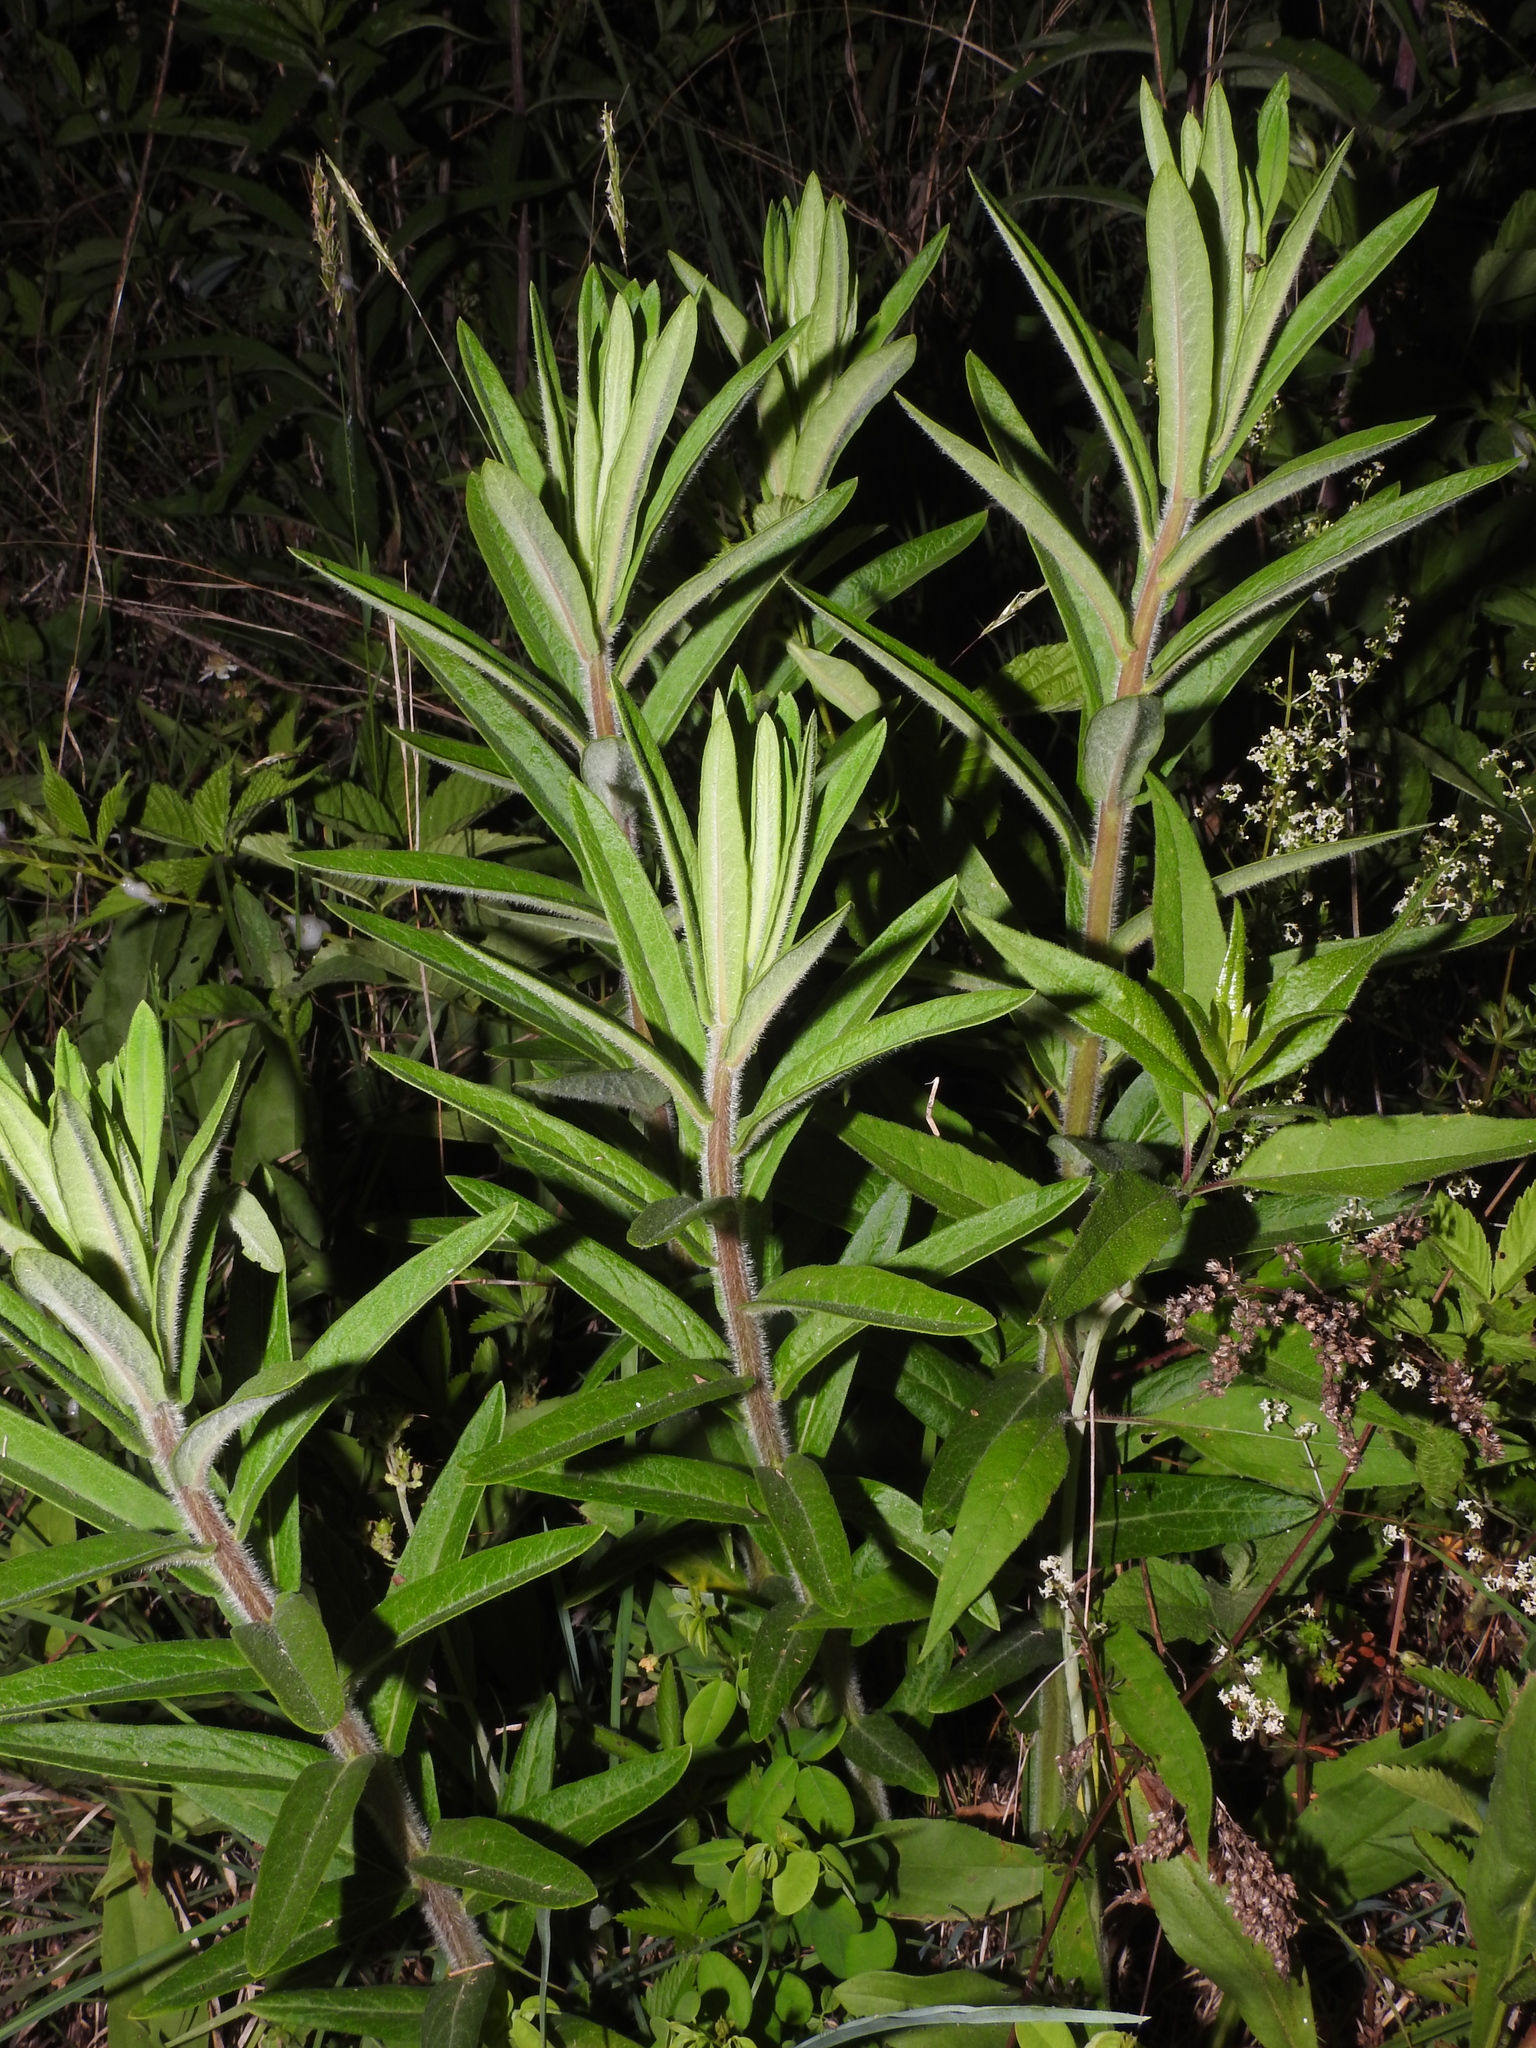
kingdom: Plantae
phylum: Tracheophyta
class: Magnoliopsida
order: Gentianales
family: Apocynaceae
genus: Asclepias
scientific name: Asclepias tuberosa
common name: Butterfly milkweed
